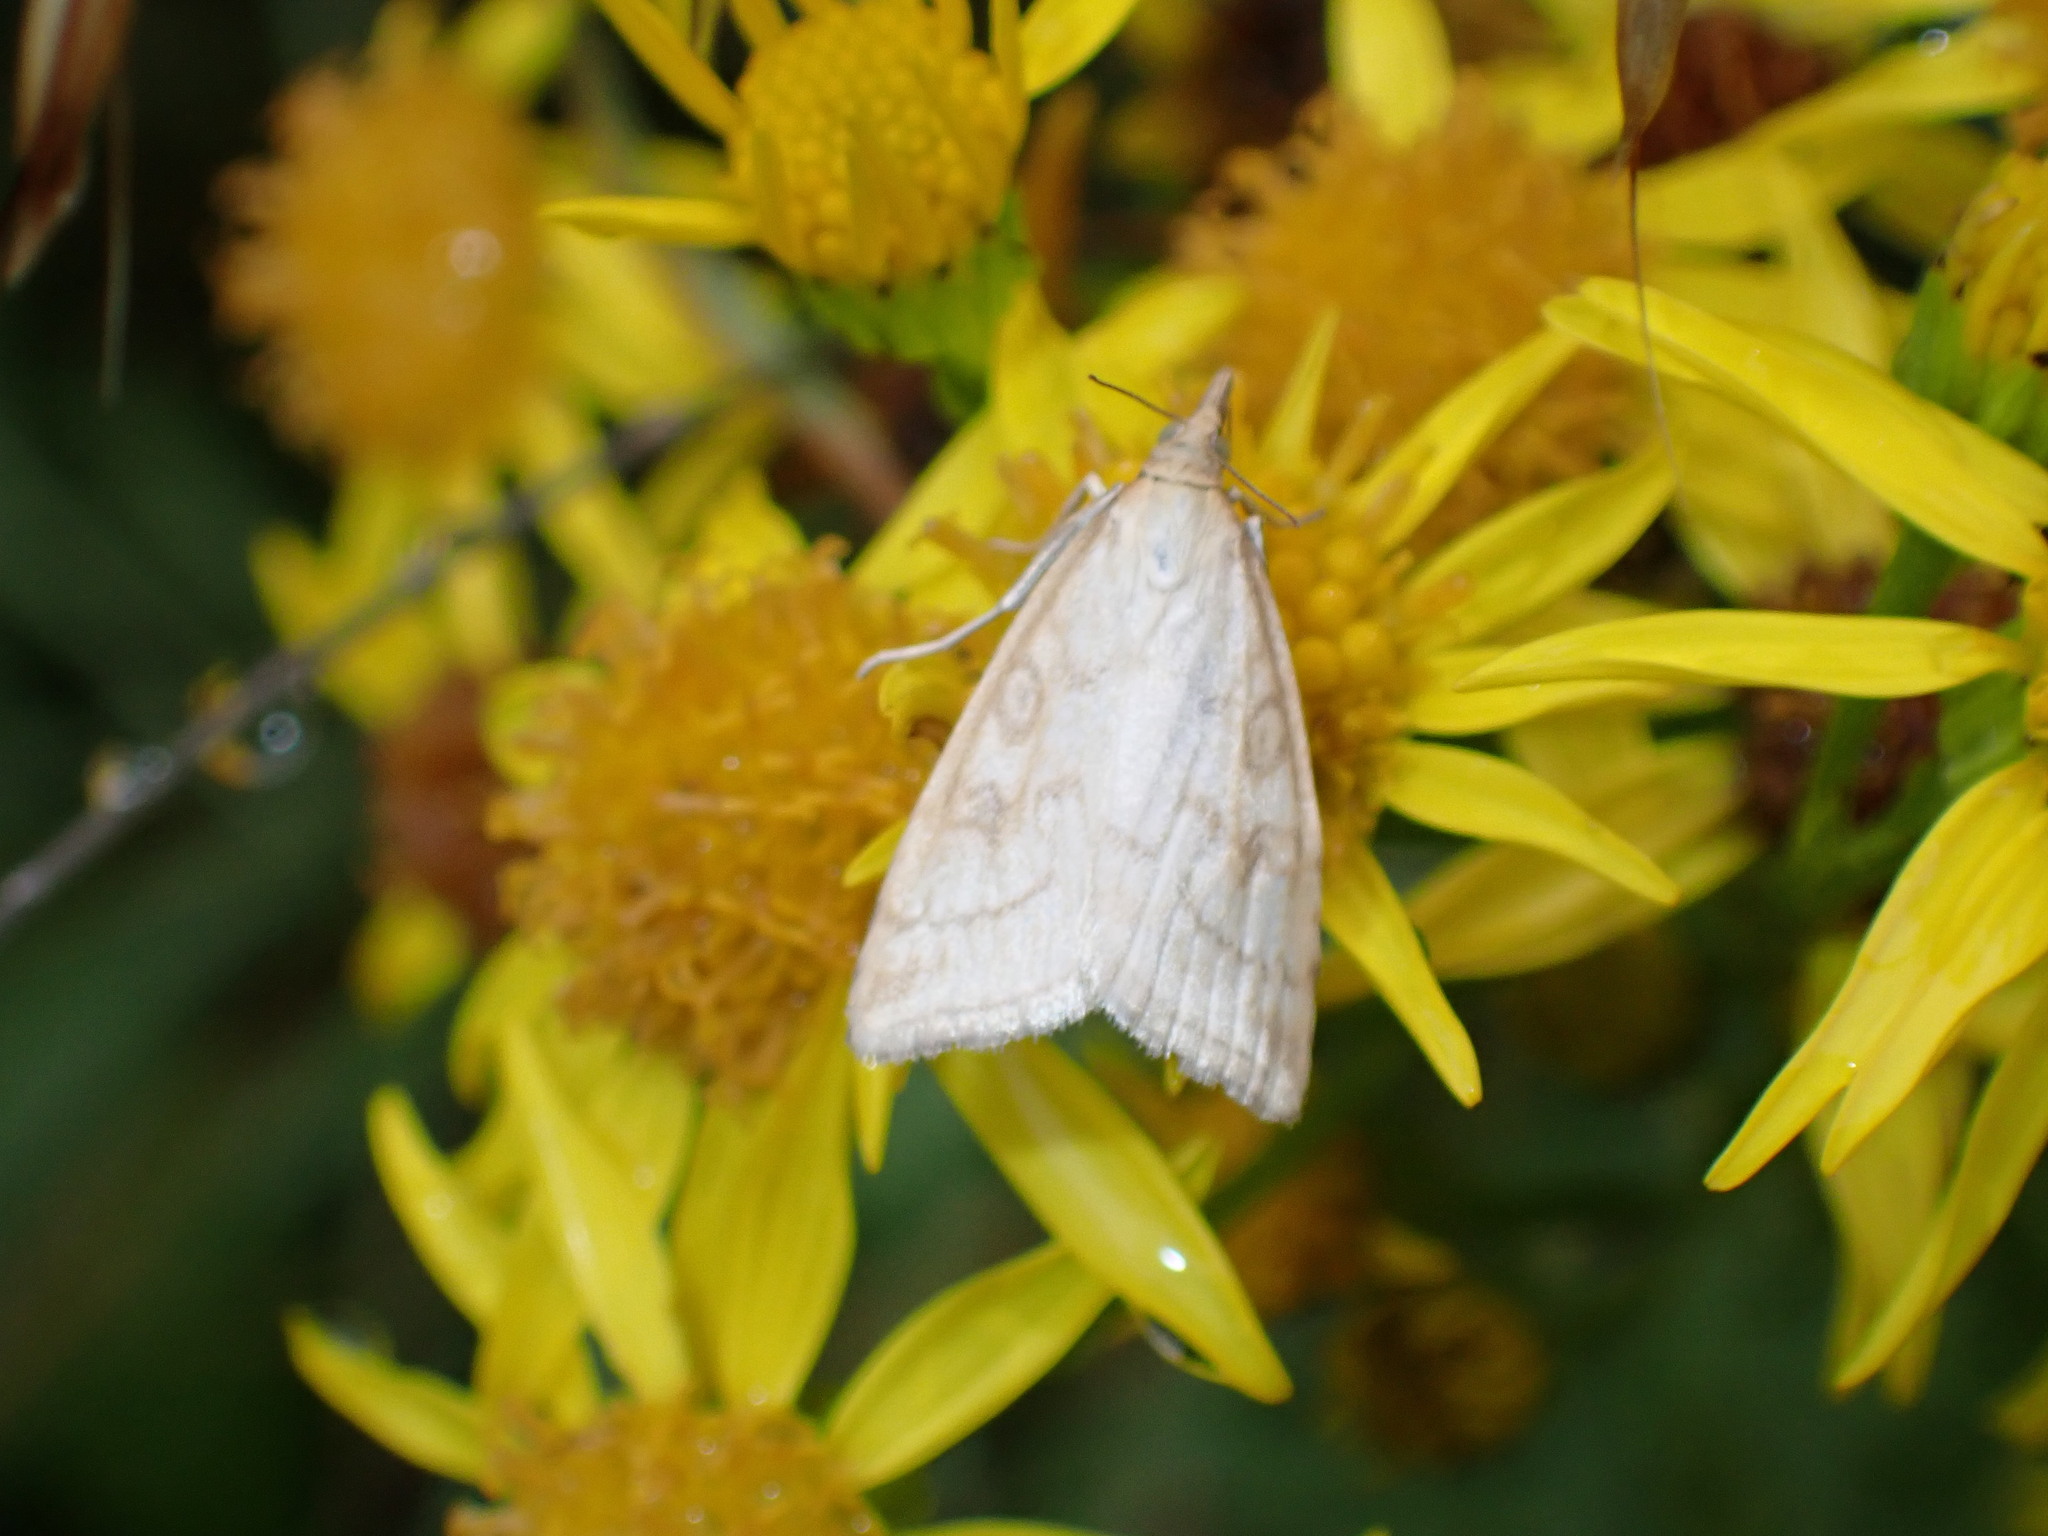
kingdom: Animalia
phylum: Arthropoda
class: Insecta
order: Lepidoptera
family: Crambidae
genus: Udea
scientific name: Udea lutealis
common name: Pale straw pearl
